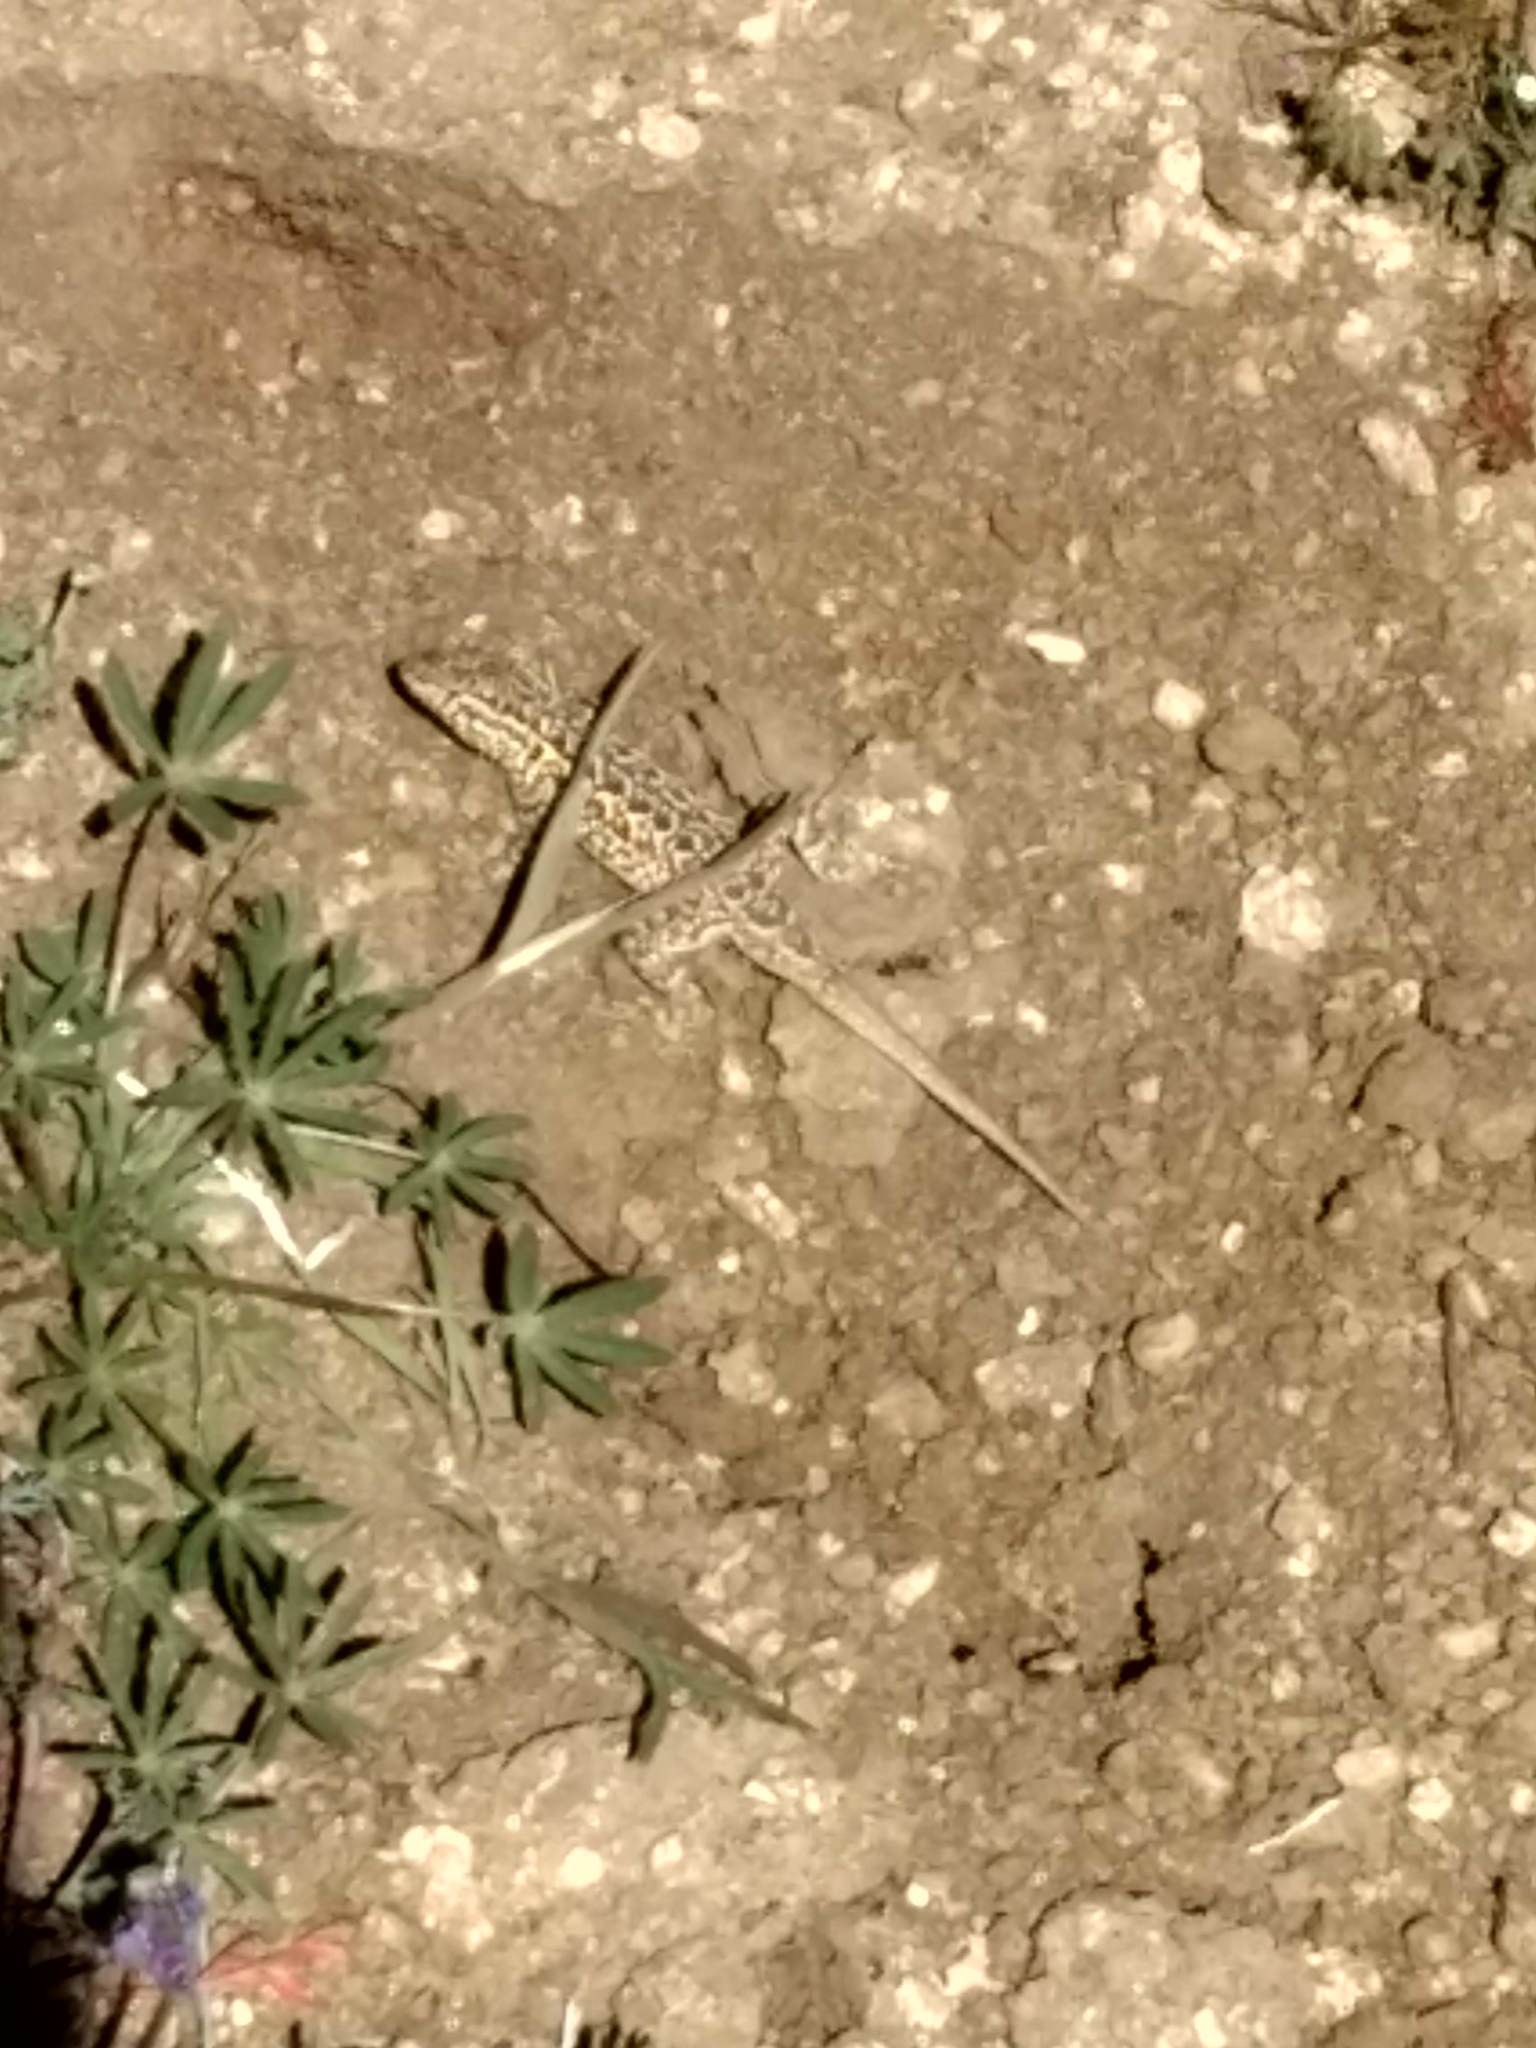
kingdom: Animalia
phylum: Chordata
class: Squamata
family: Phrynosomatidae
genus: Uta
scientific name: Uta stansburiana
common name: Side-blotched lizard
